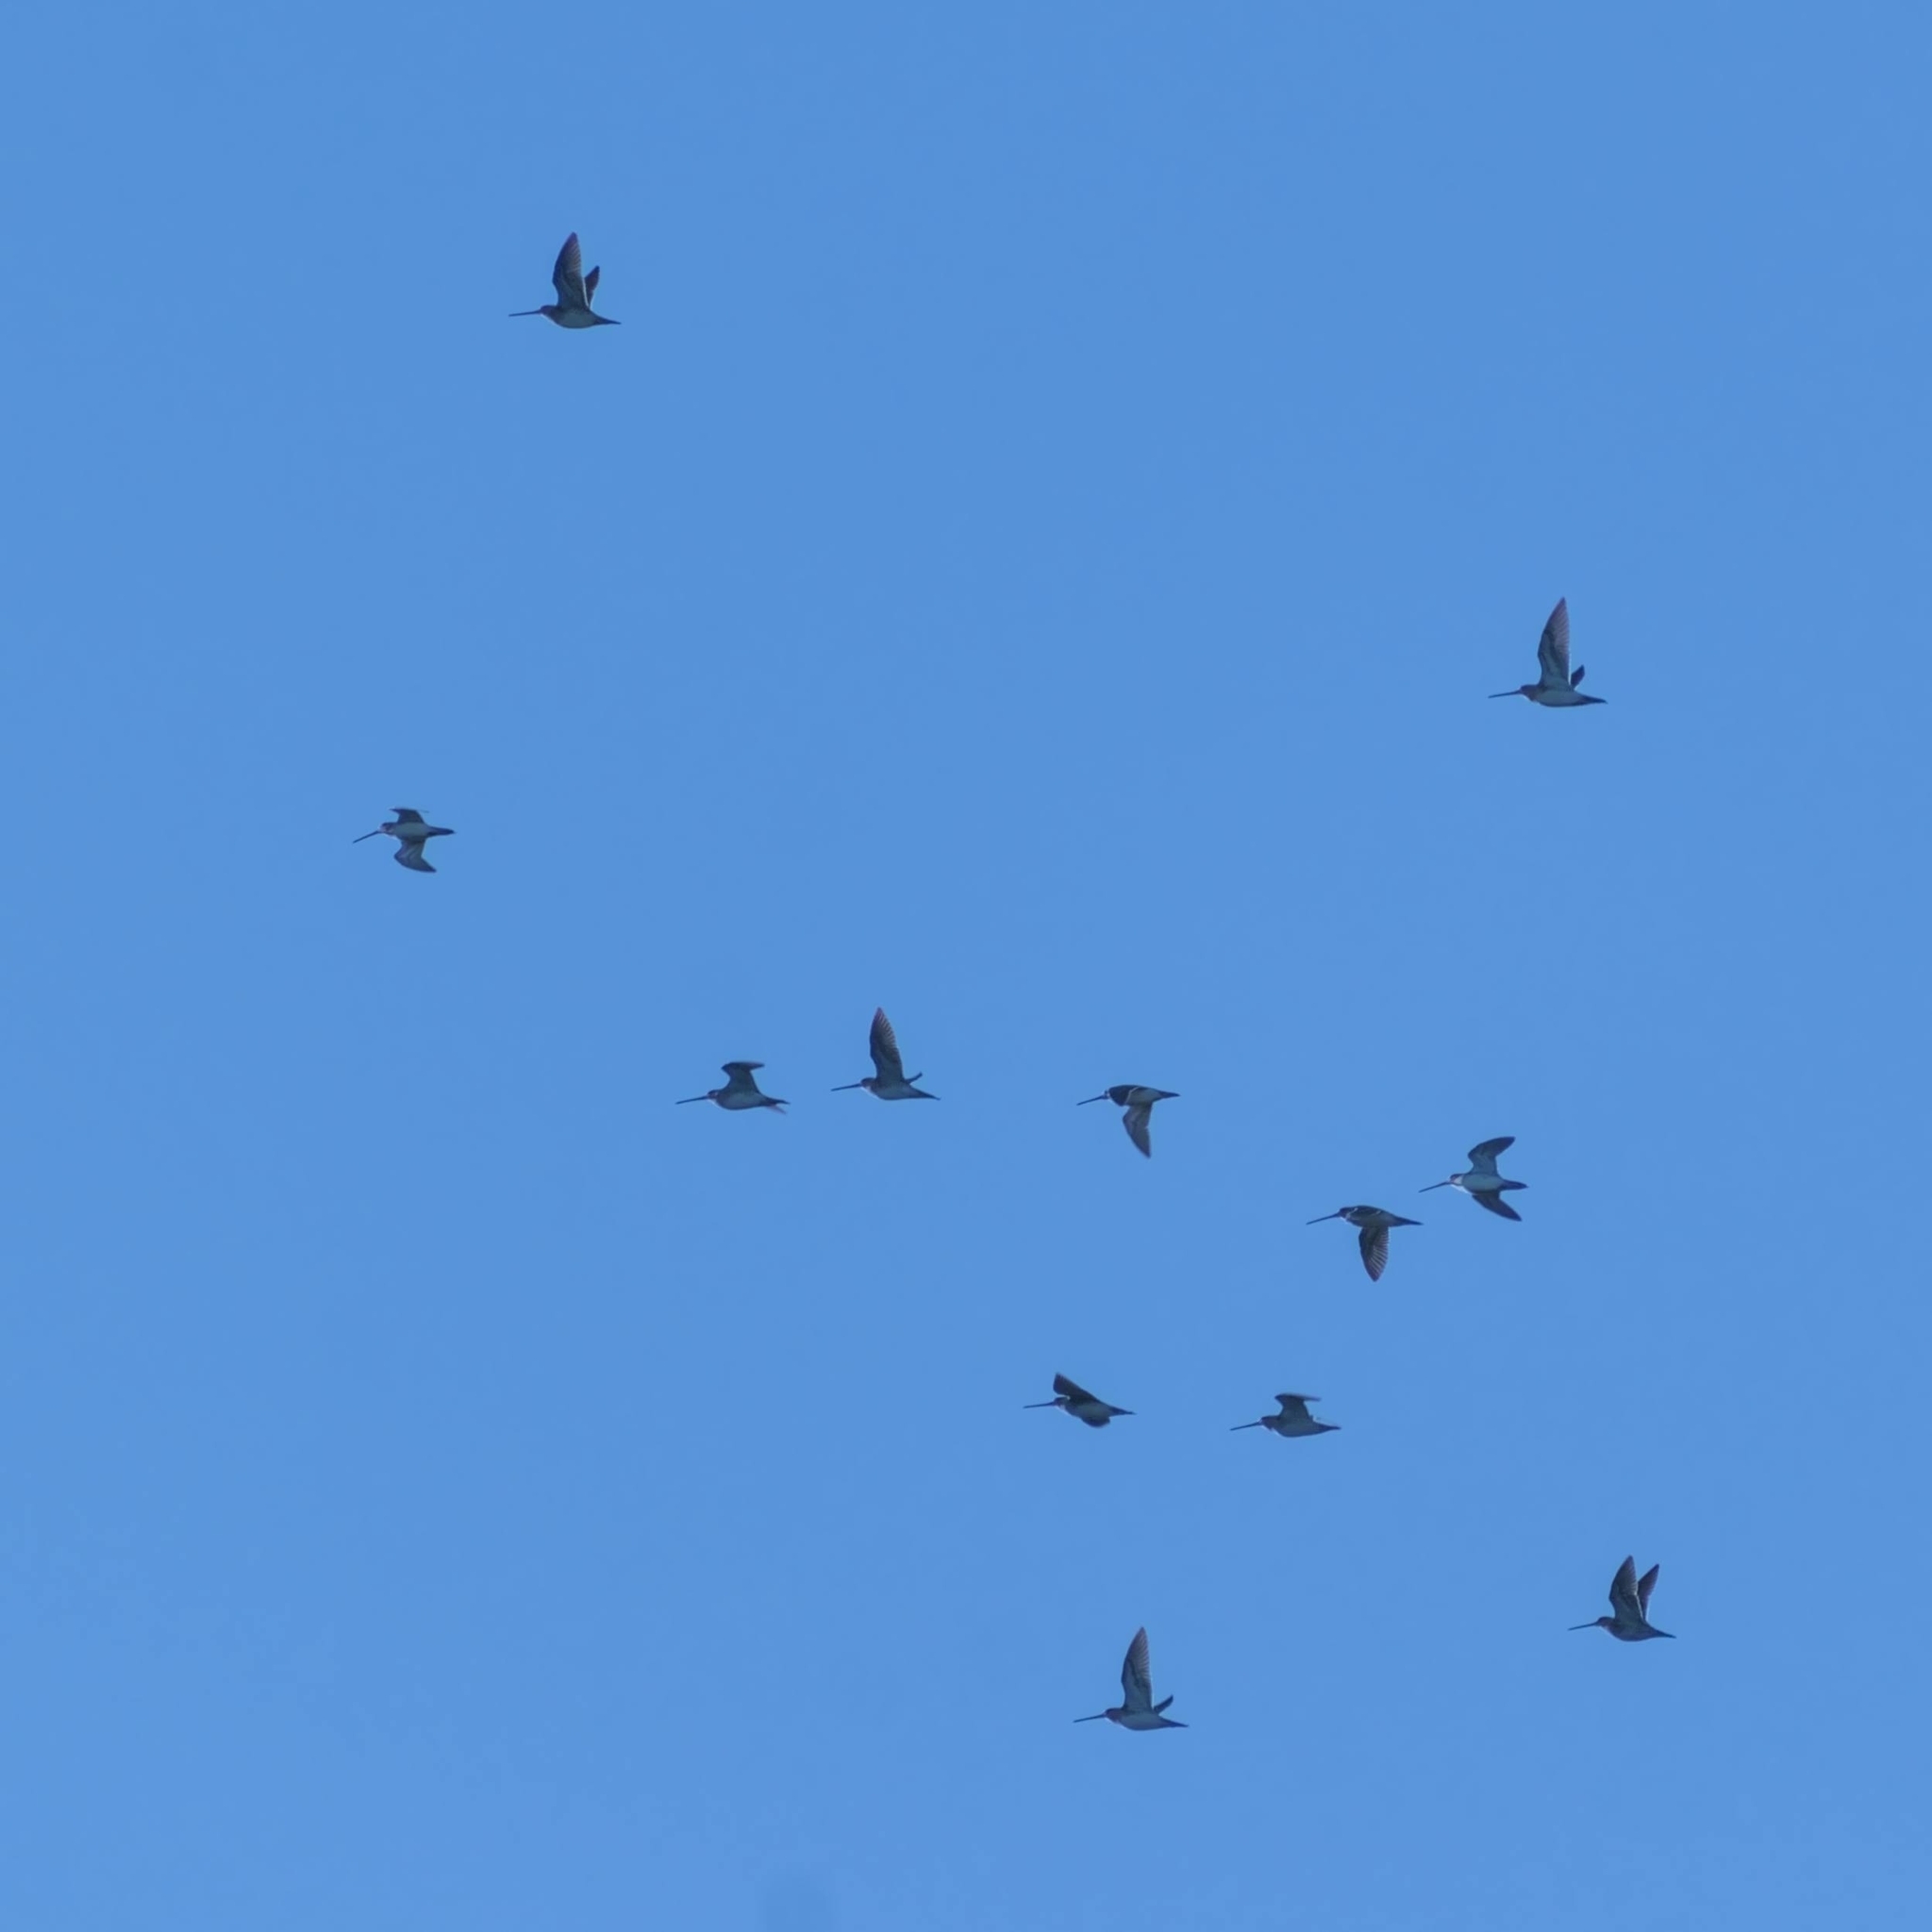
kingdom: Animalia
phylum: Chordata
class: Aves
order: Charadriiformes
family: Scolopacidae
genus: Gallinago
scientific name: Gallinago gallinago
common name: Common snipe
